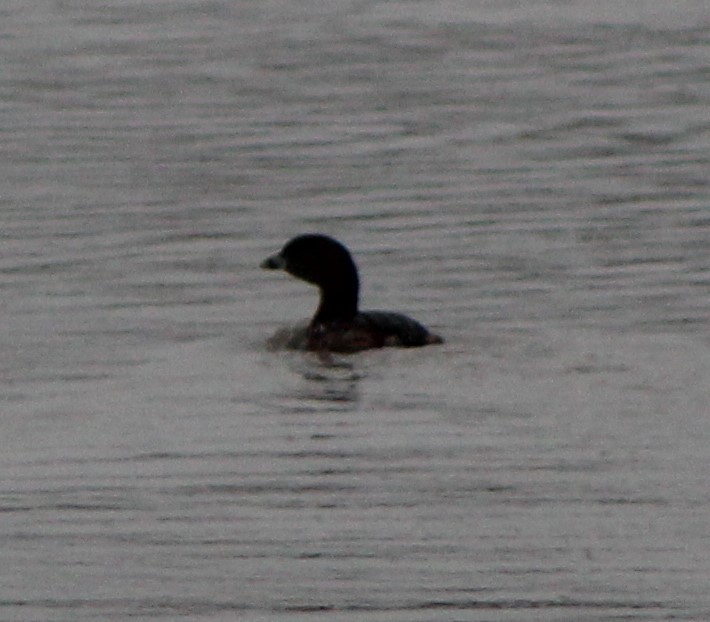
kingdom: Animalia
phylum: Chordata
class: Aves
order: Podicipediformes
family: Podicipedidae
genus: Podilymbus
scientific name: Podilymbus podiceps
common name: Pied-billed grebe
